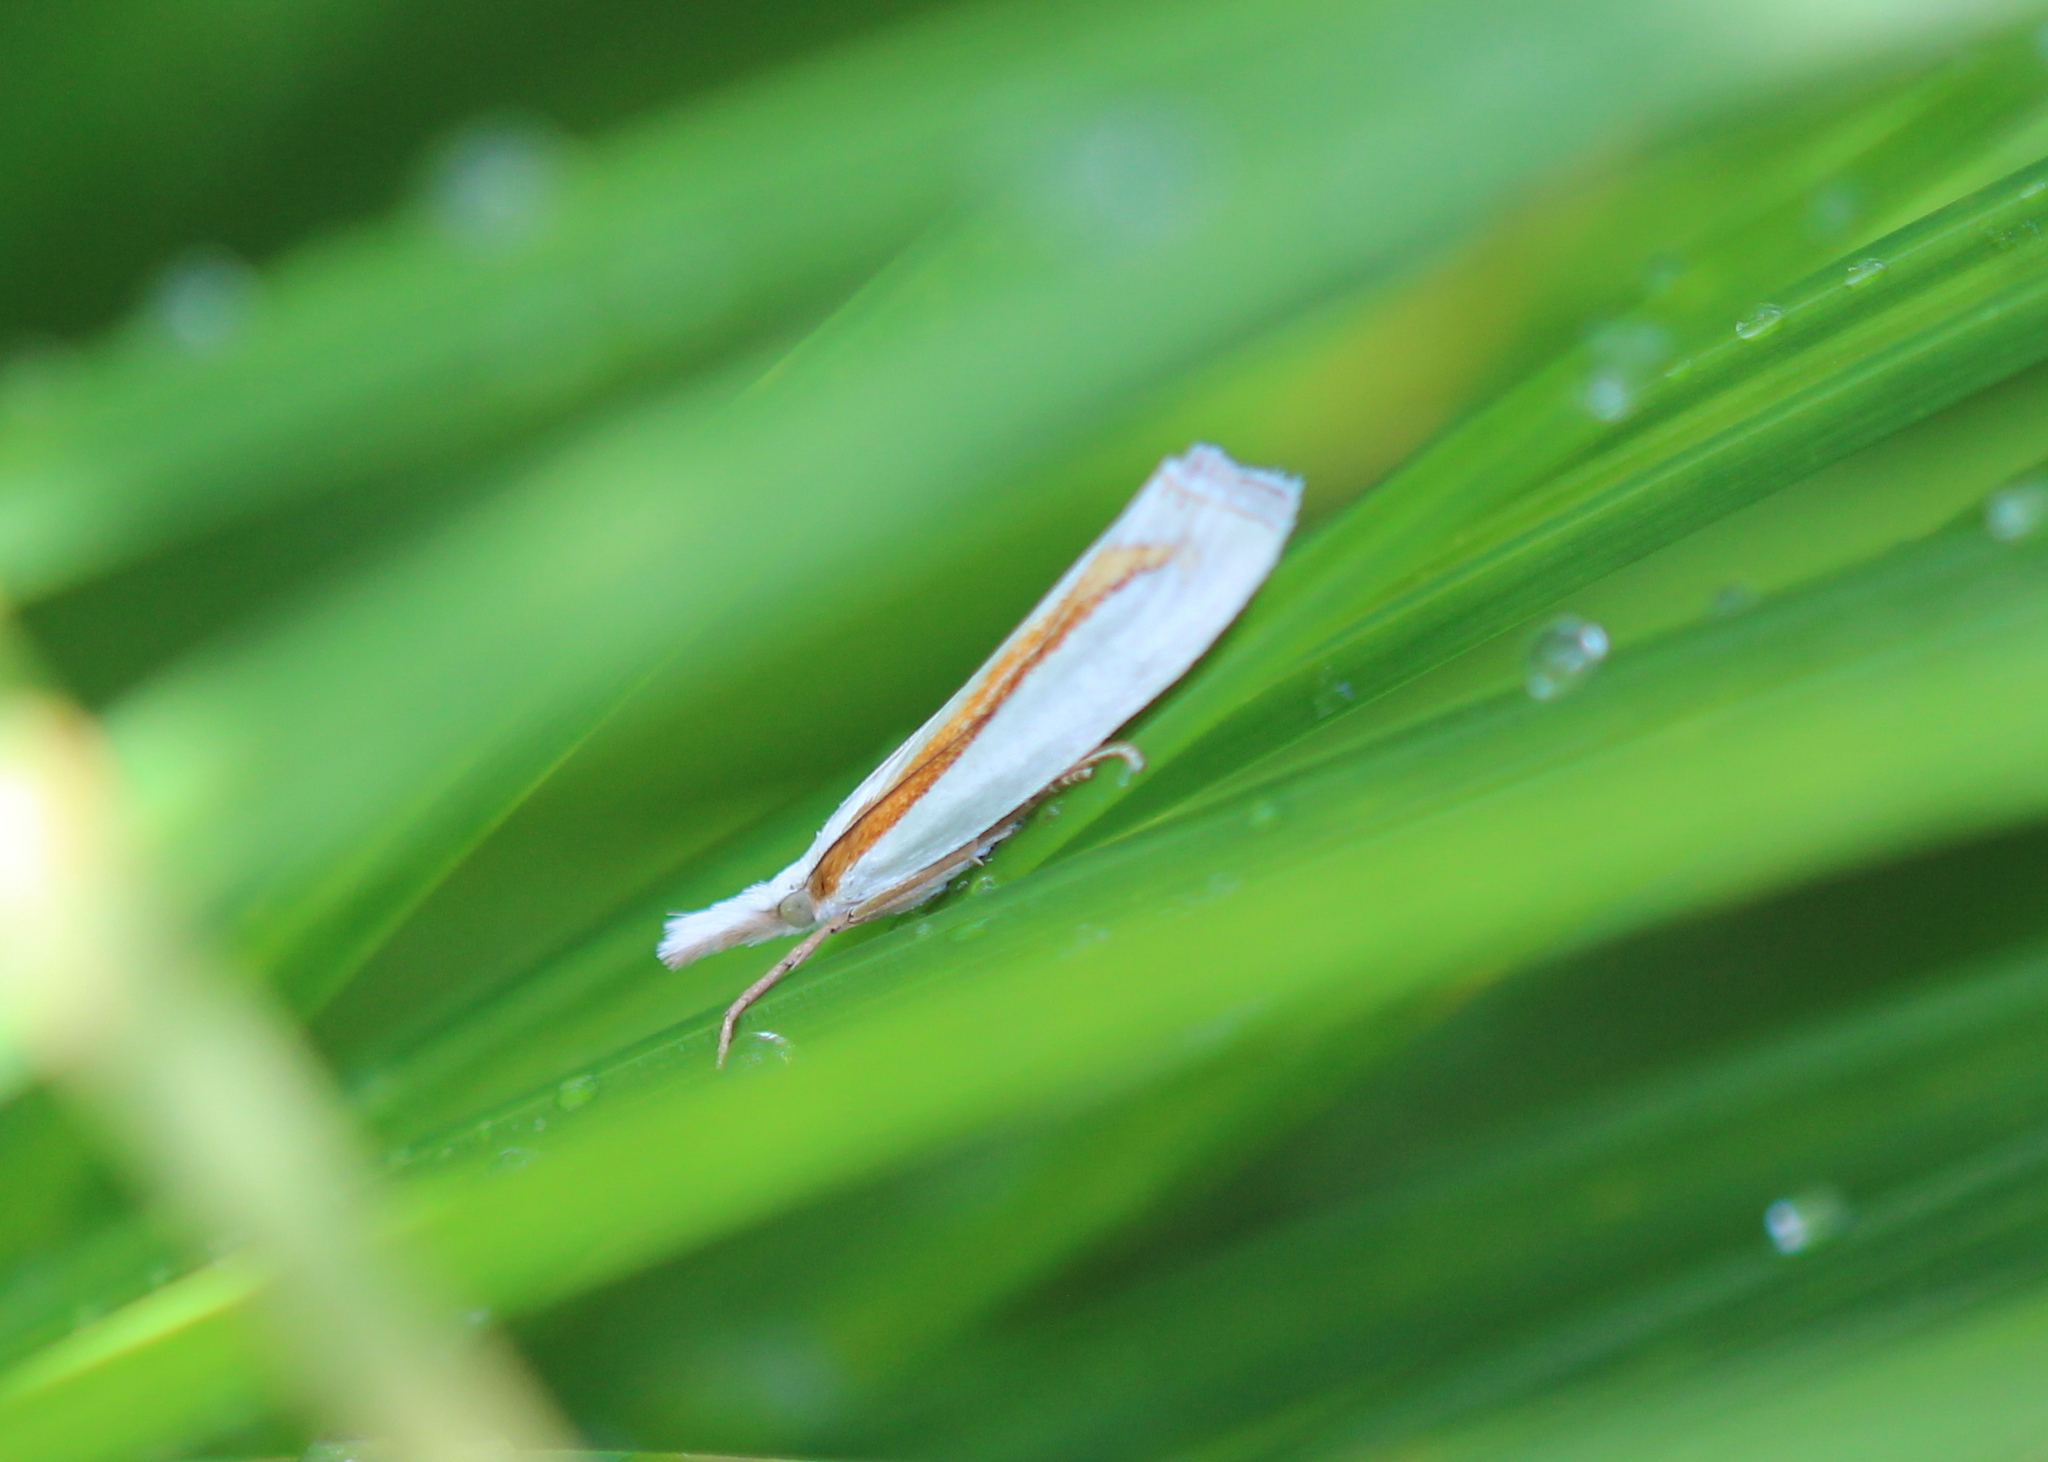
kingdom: Animalia
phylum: Arthropoda
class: Insecta
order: Lepidoptera
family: Crambidae
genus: Crambus
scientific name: Crambus girardellus
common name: Girard's grass-veneer
